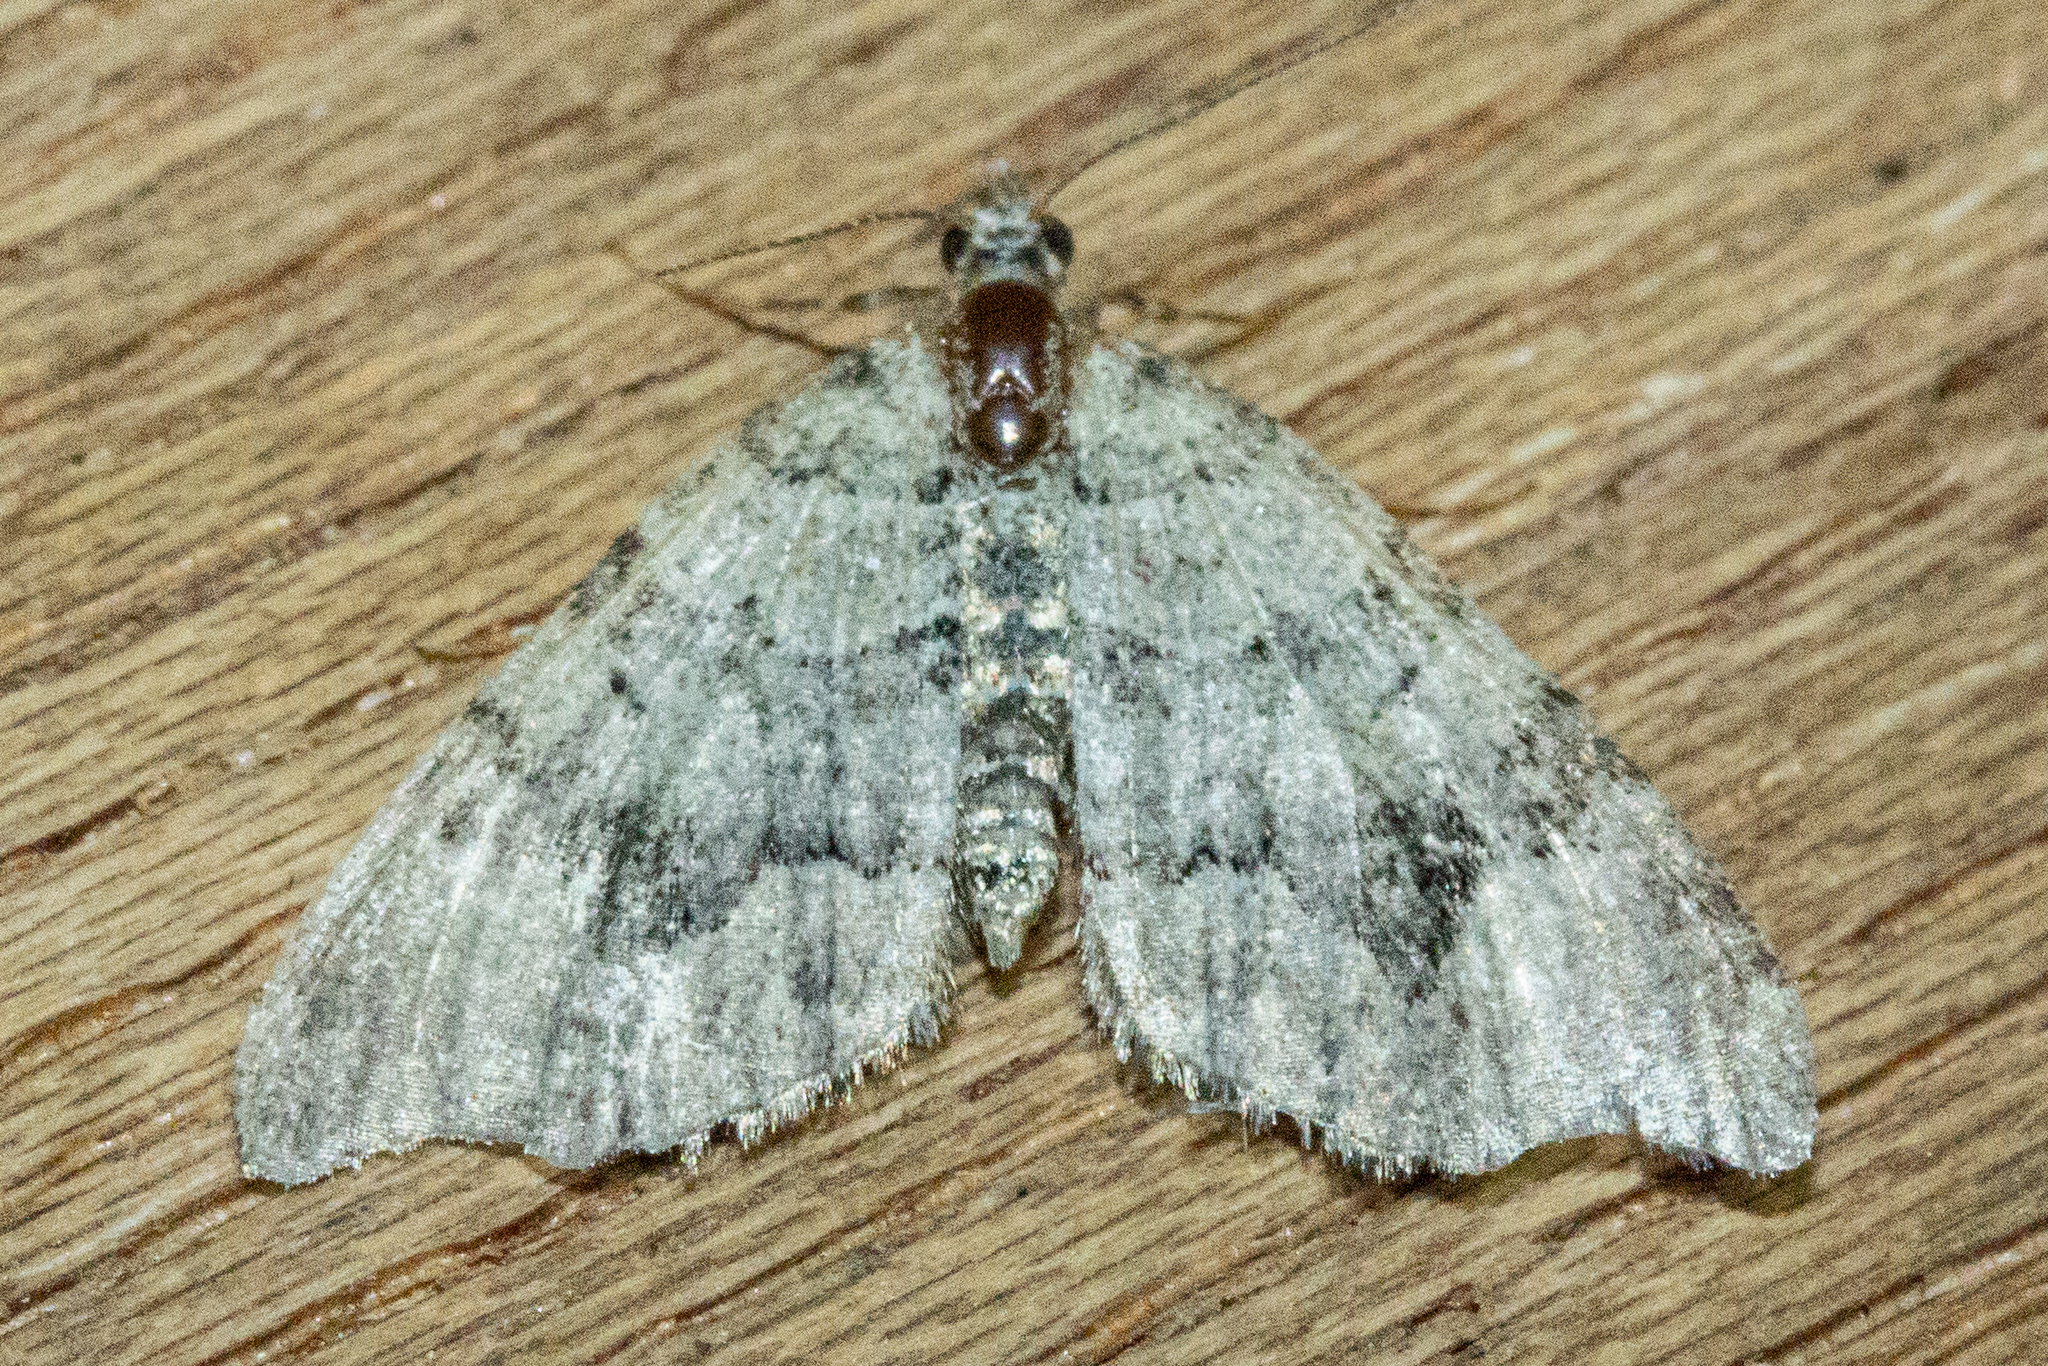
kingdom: Animalia
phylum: Arthropoda
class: Insecta
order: Lepidoptera
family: Geometridae
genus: Helastia
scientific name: Helastia cryptica
